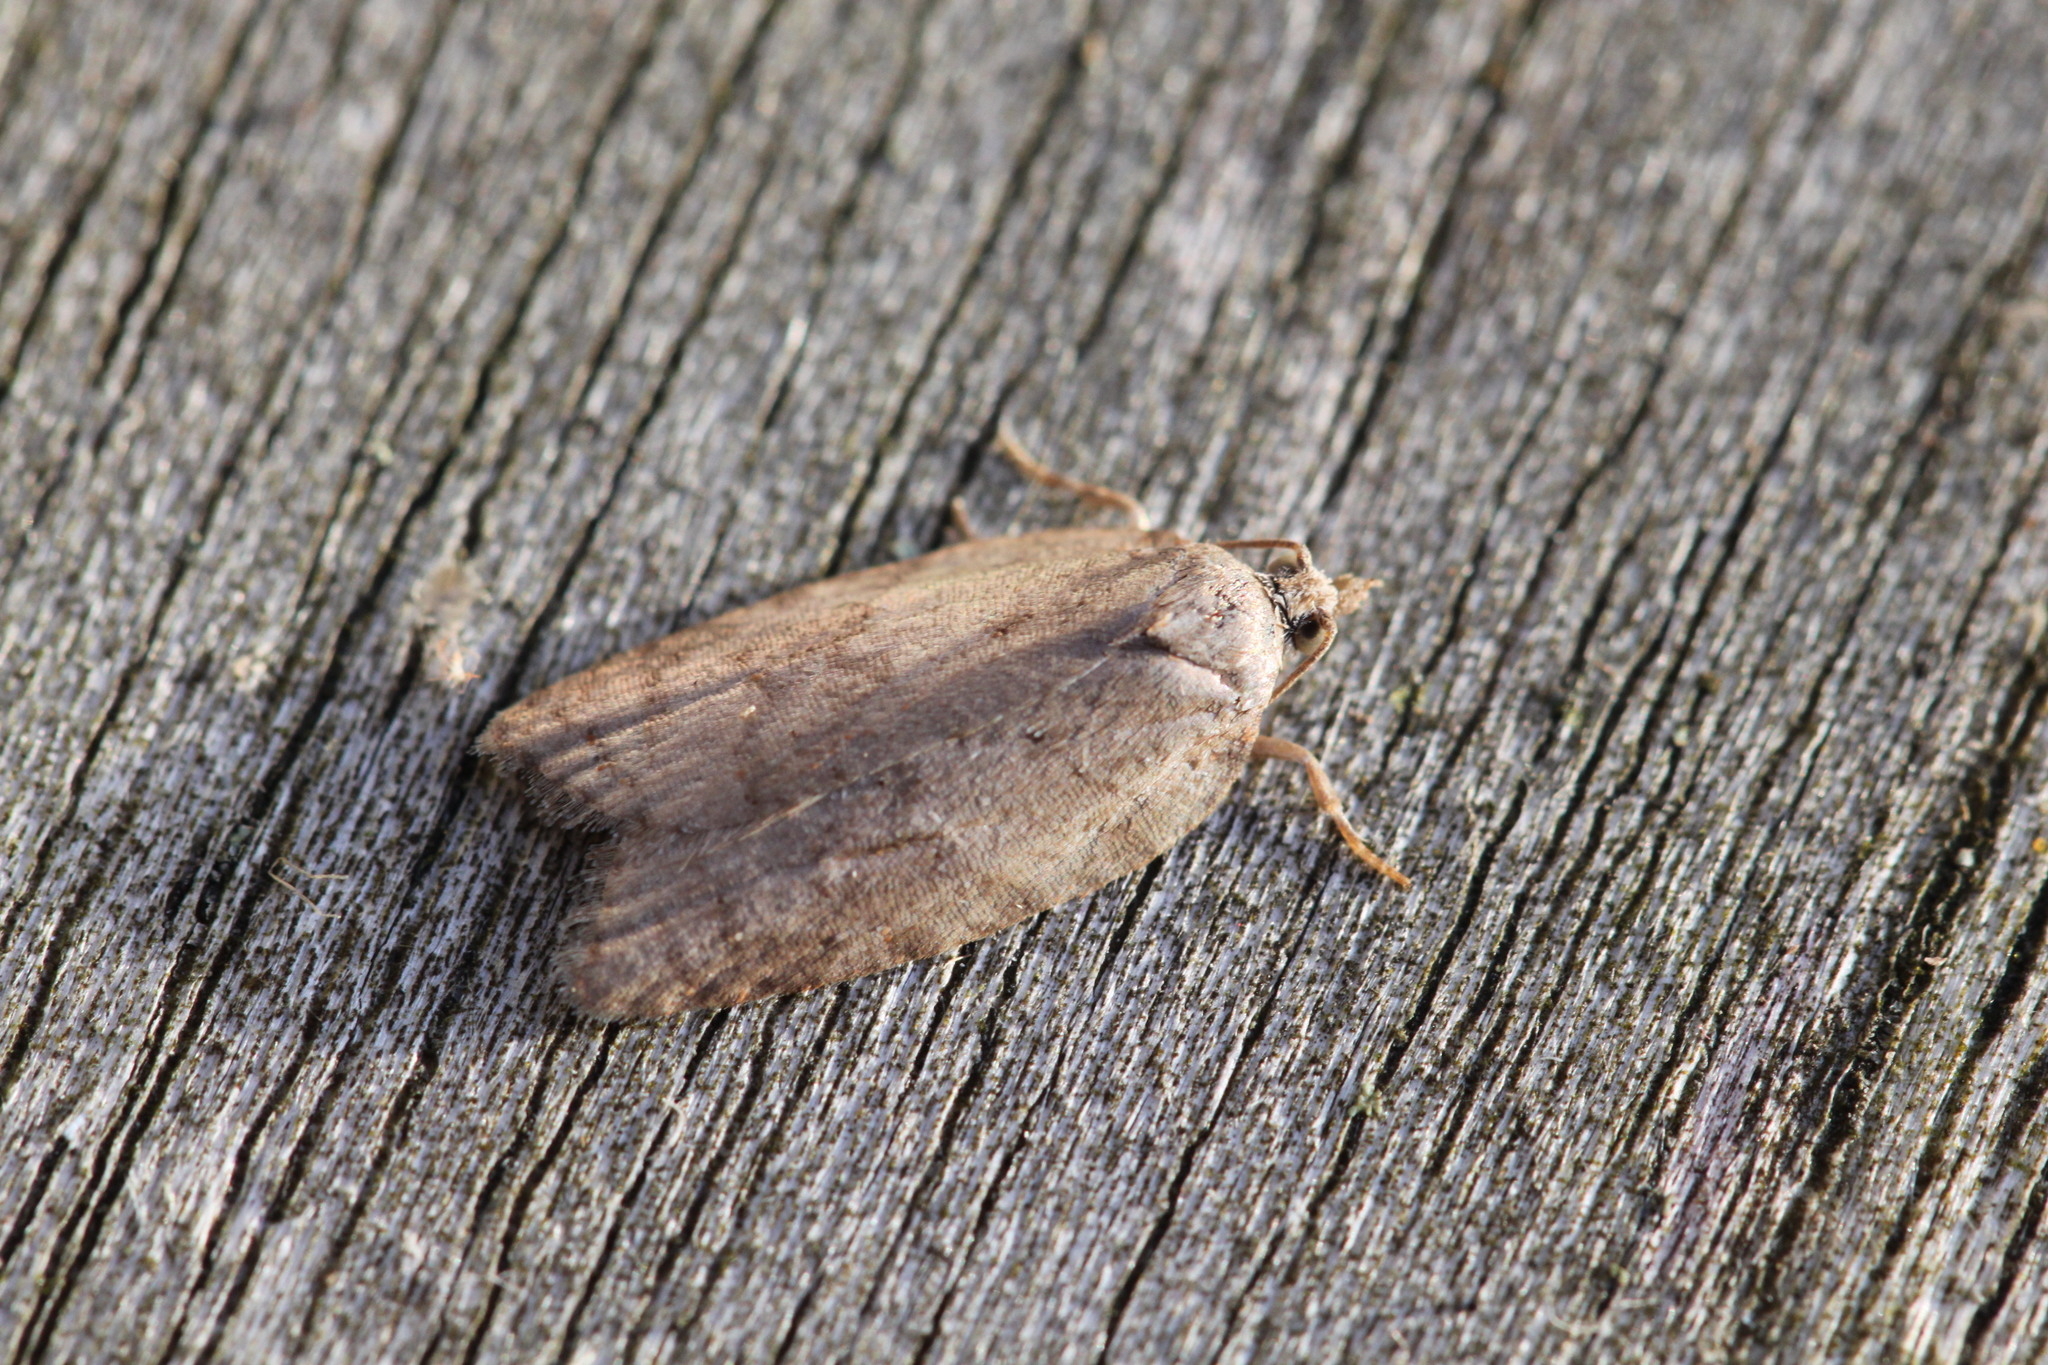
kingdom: Animalia
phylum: Arthropoda
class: Insecta
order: Lepidoptera
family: Tortricidae
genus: Acleris
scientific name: Acleris sparsana
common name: Ashy button
